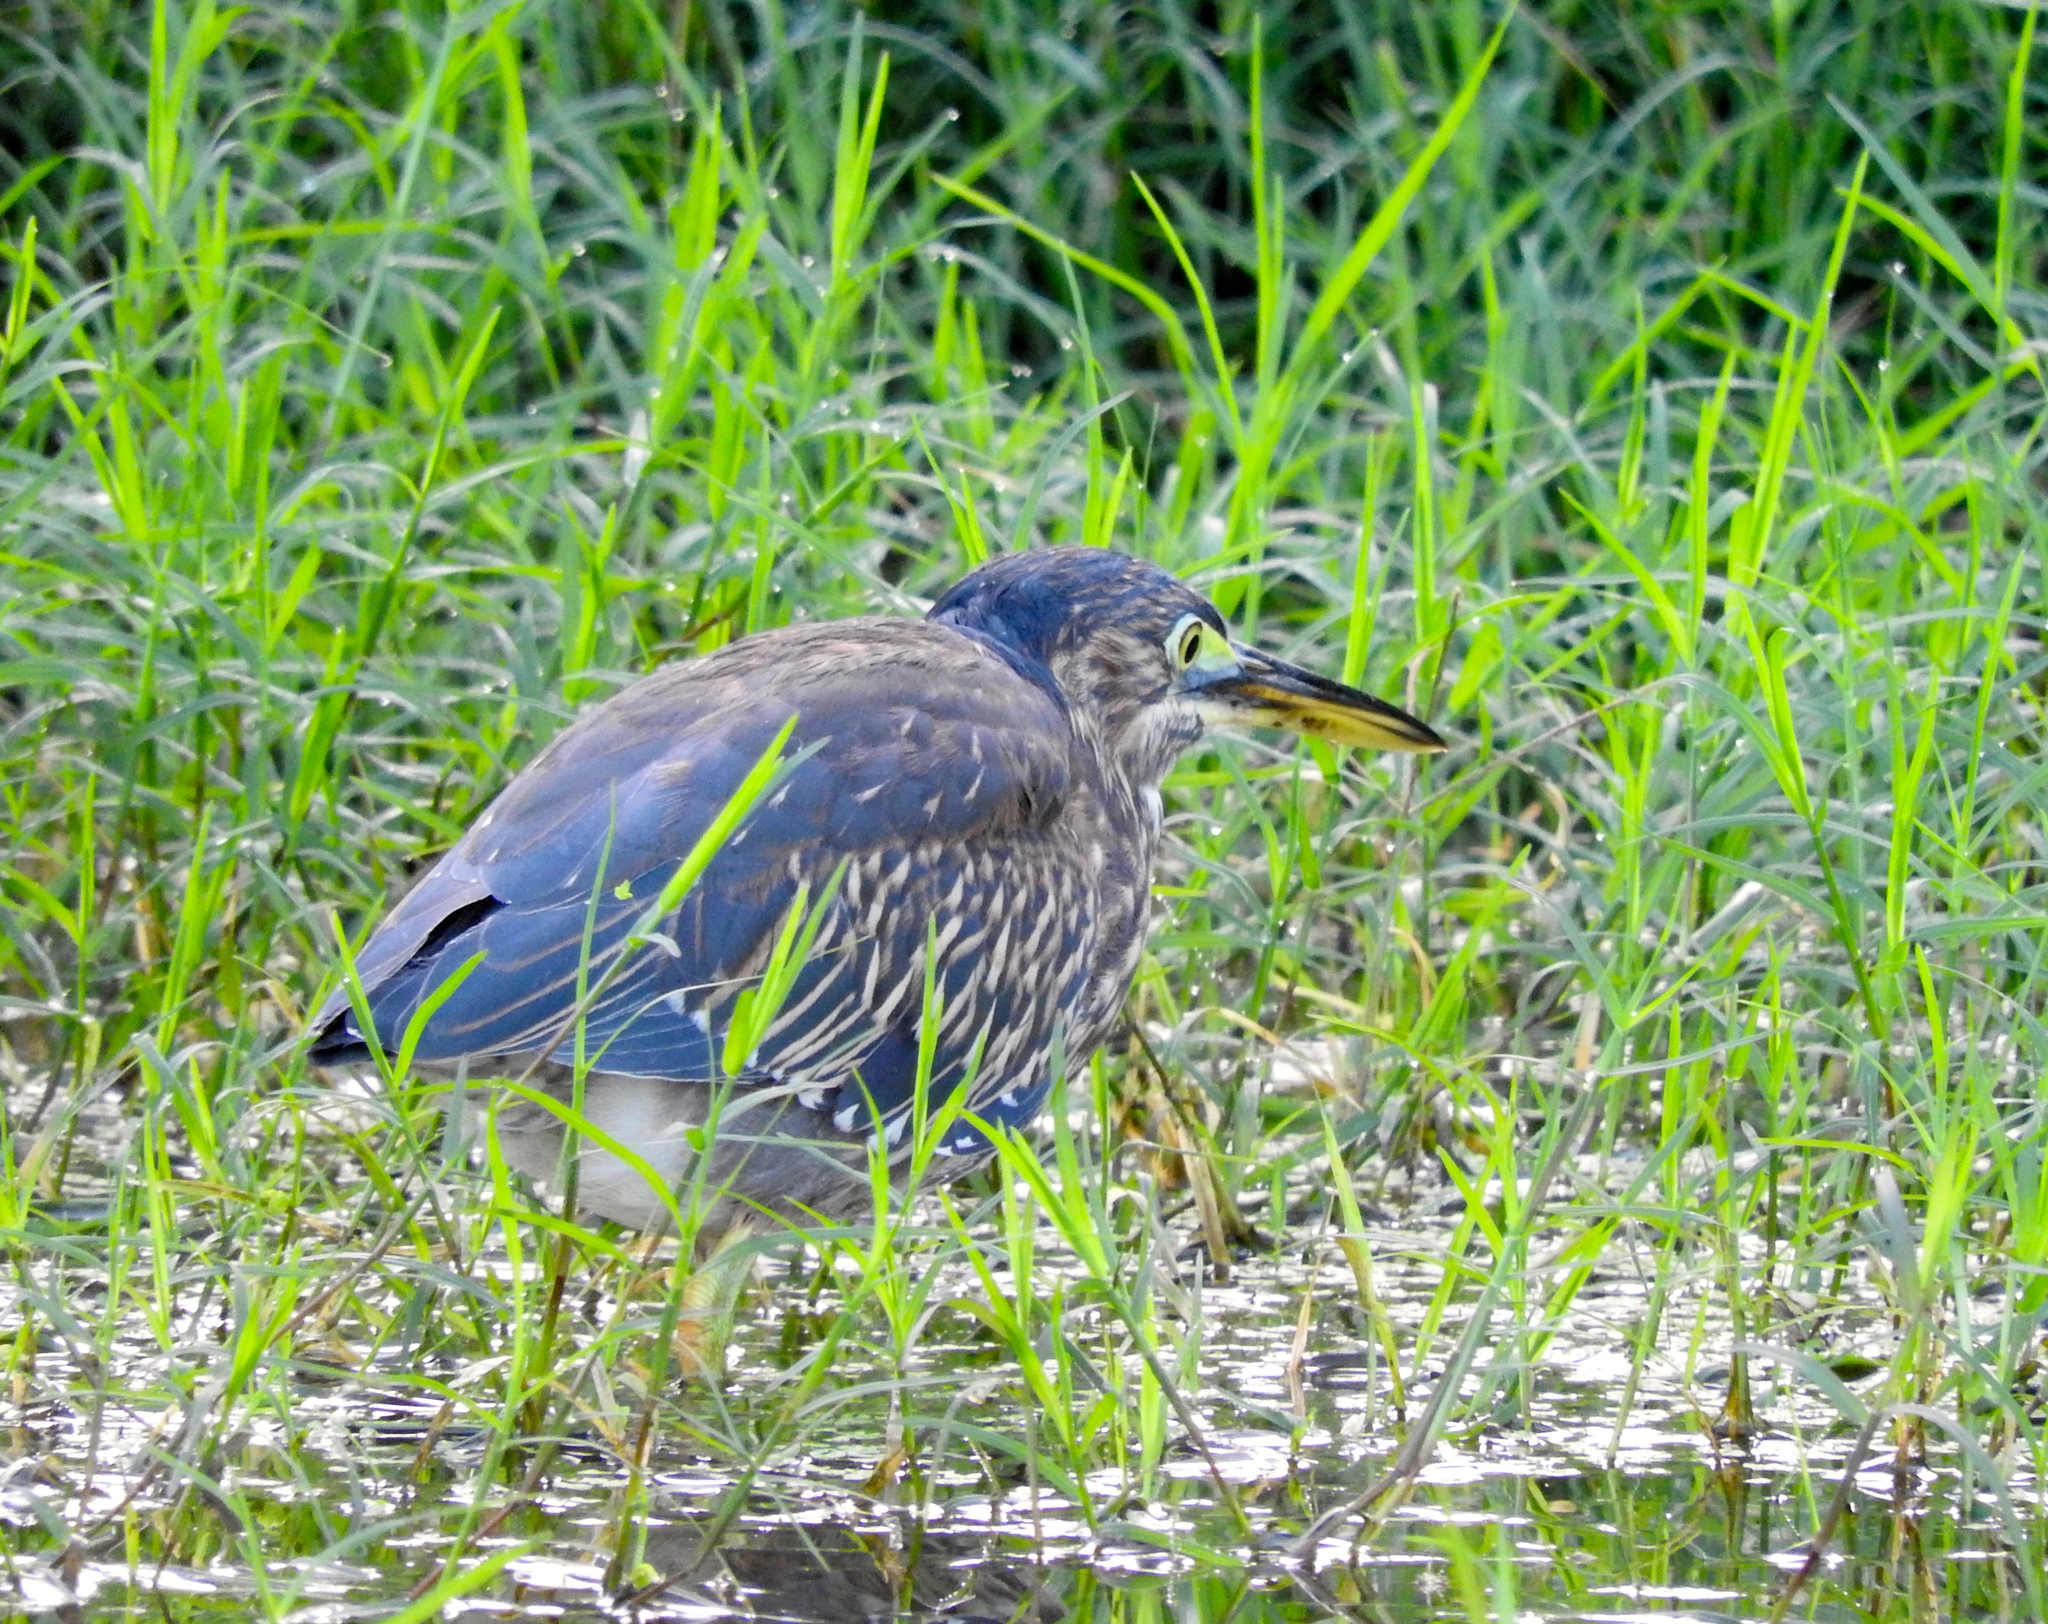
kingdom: Animalia
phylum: Chordata
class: Aves
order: Pelecaniformes
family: Ardeidae
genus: Butorides
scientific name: Butorides virescens
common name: Green heron
